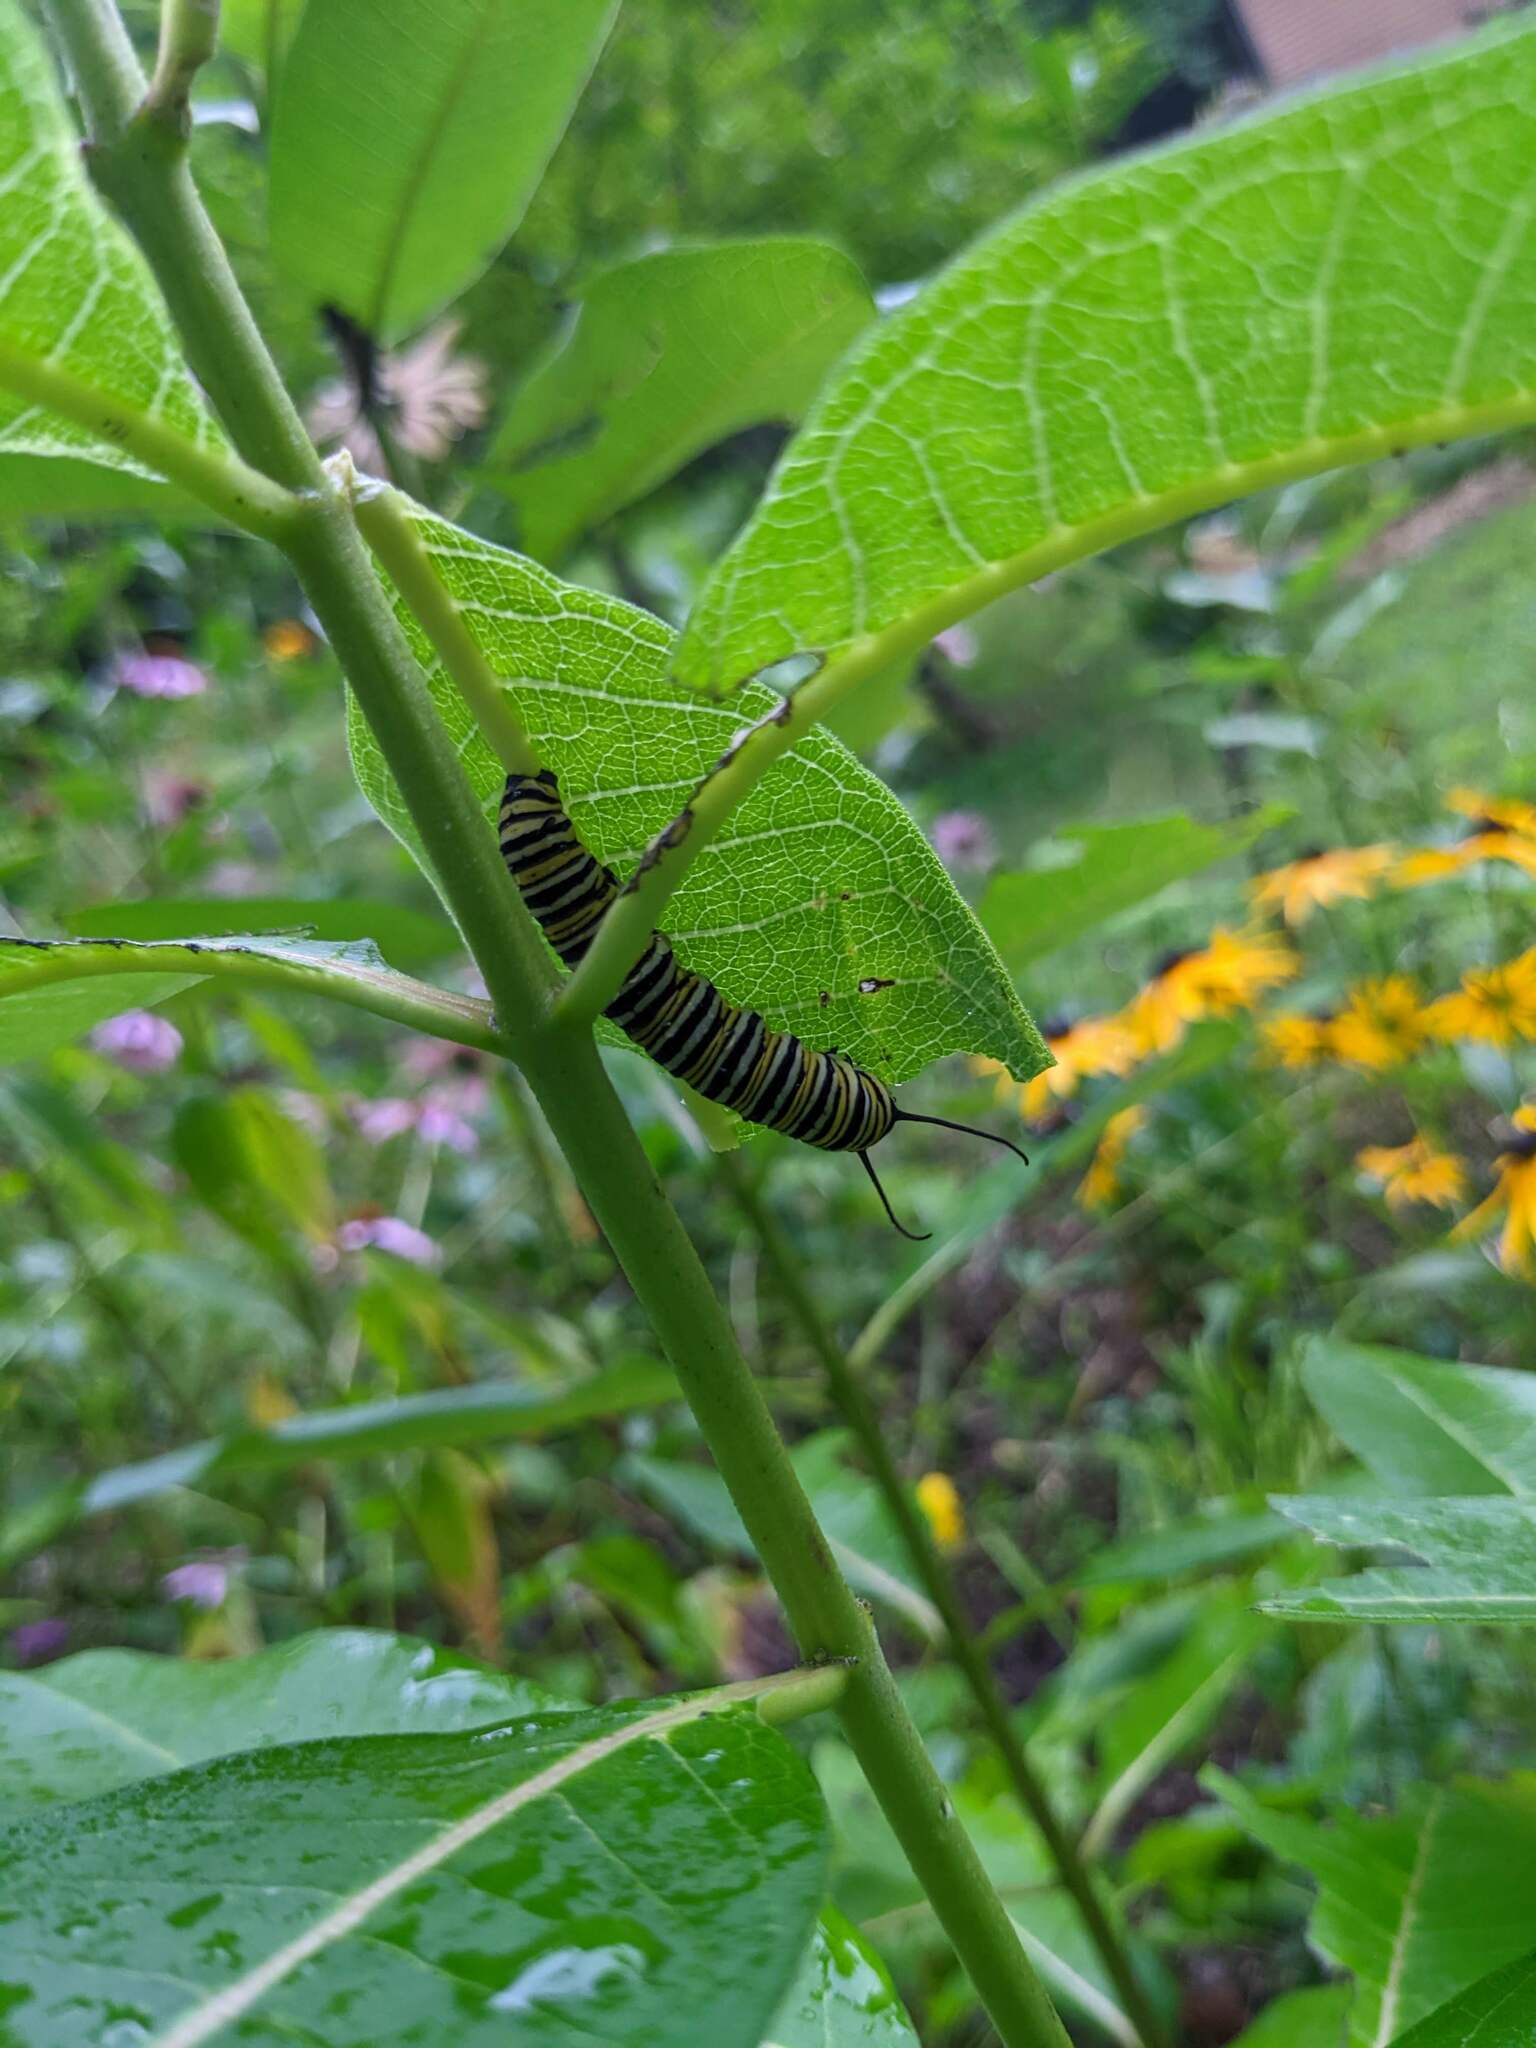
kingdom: Animalia
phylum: Arthropoda
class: Insecta
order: Lepidoptera
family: Nymphalidae
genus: Danaus
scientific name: Danaus plexippus
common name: Monarch
